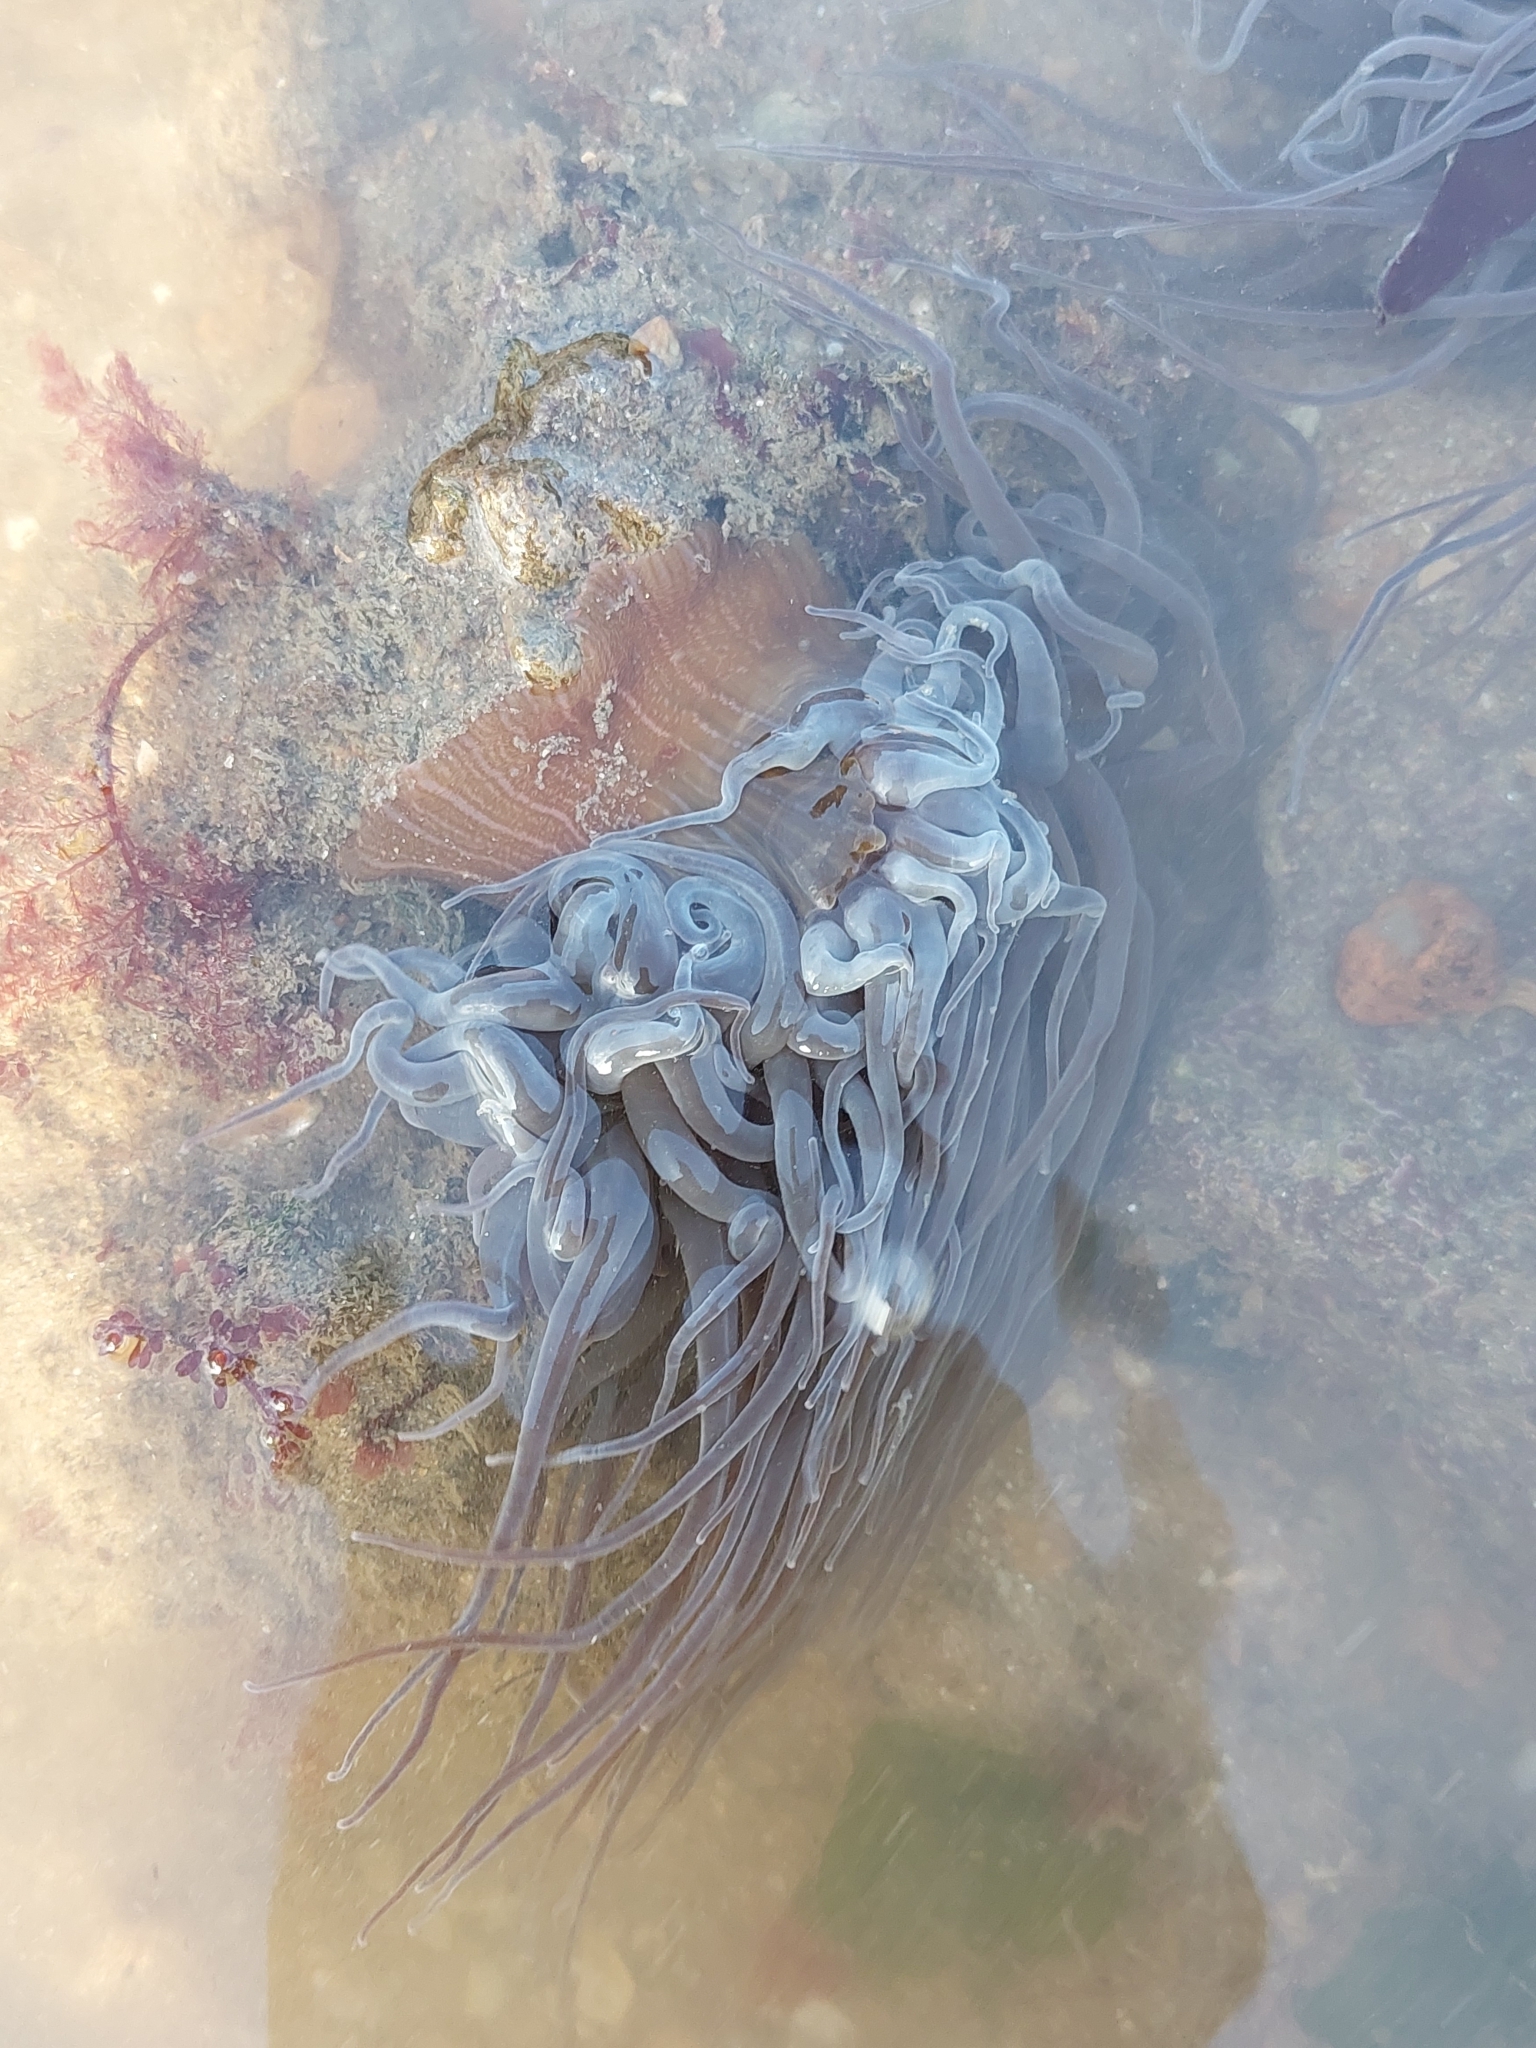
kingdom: Animalia
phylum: Cnidaria
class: Anthozoa
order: Actiniaria
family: Actiniidae
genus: Anemonia
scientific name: Anemonia viridis
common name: Snakelocks anemone
